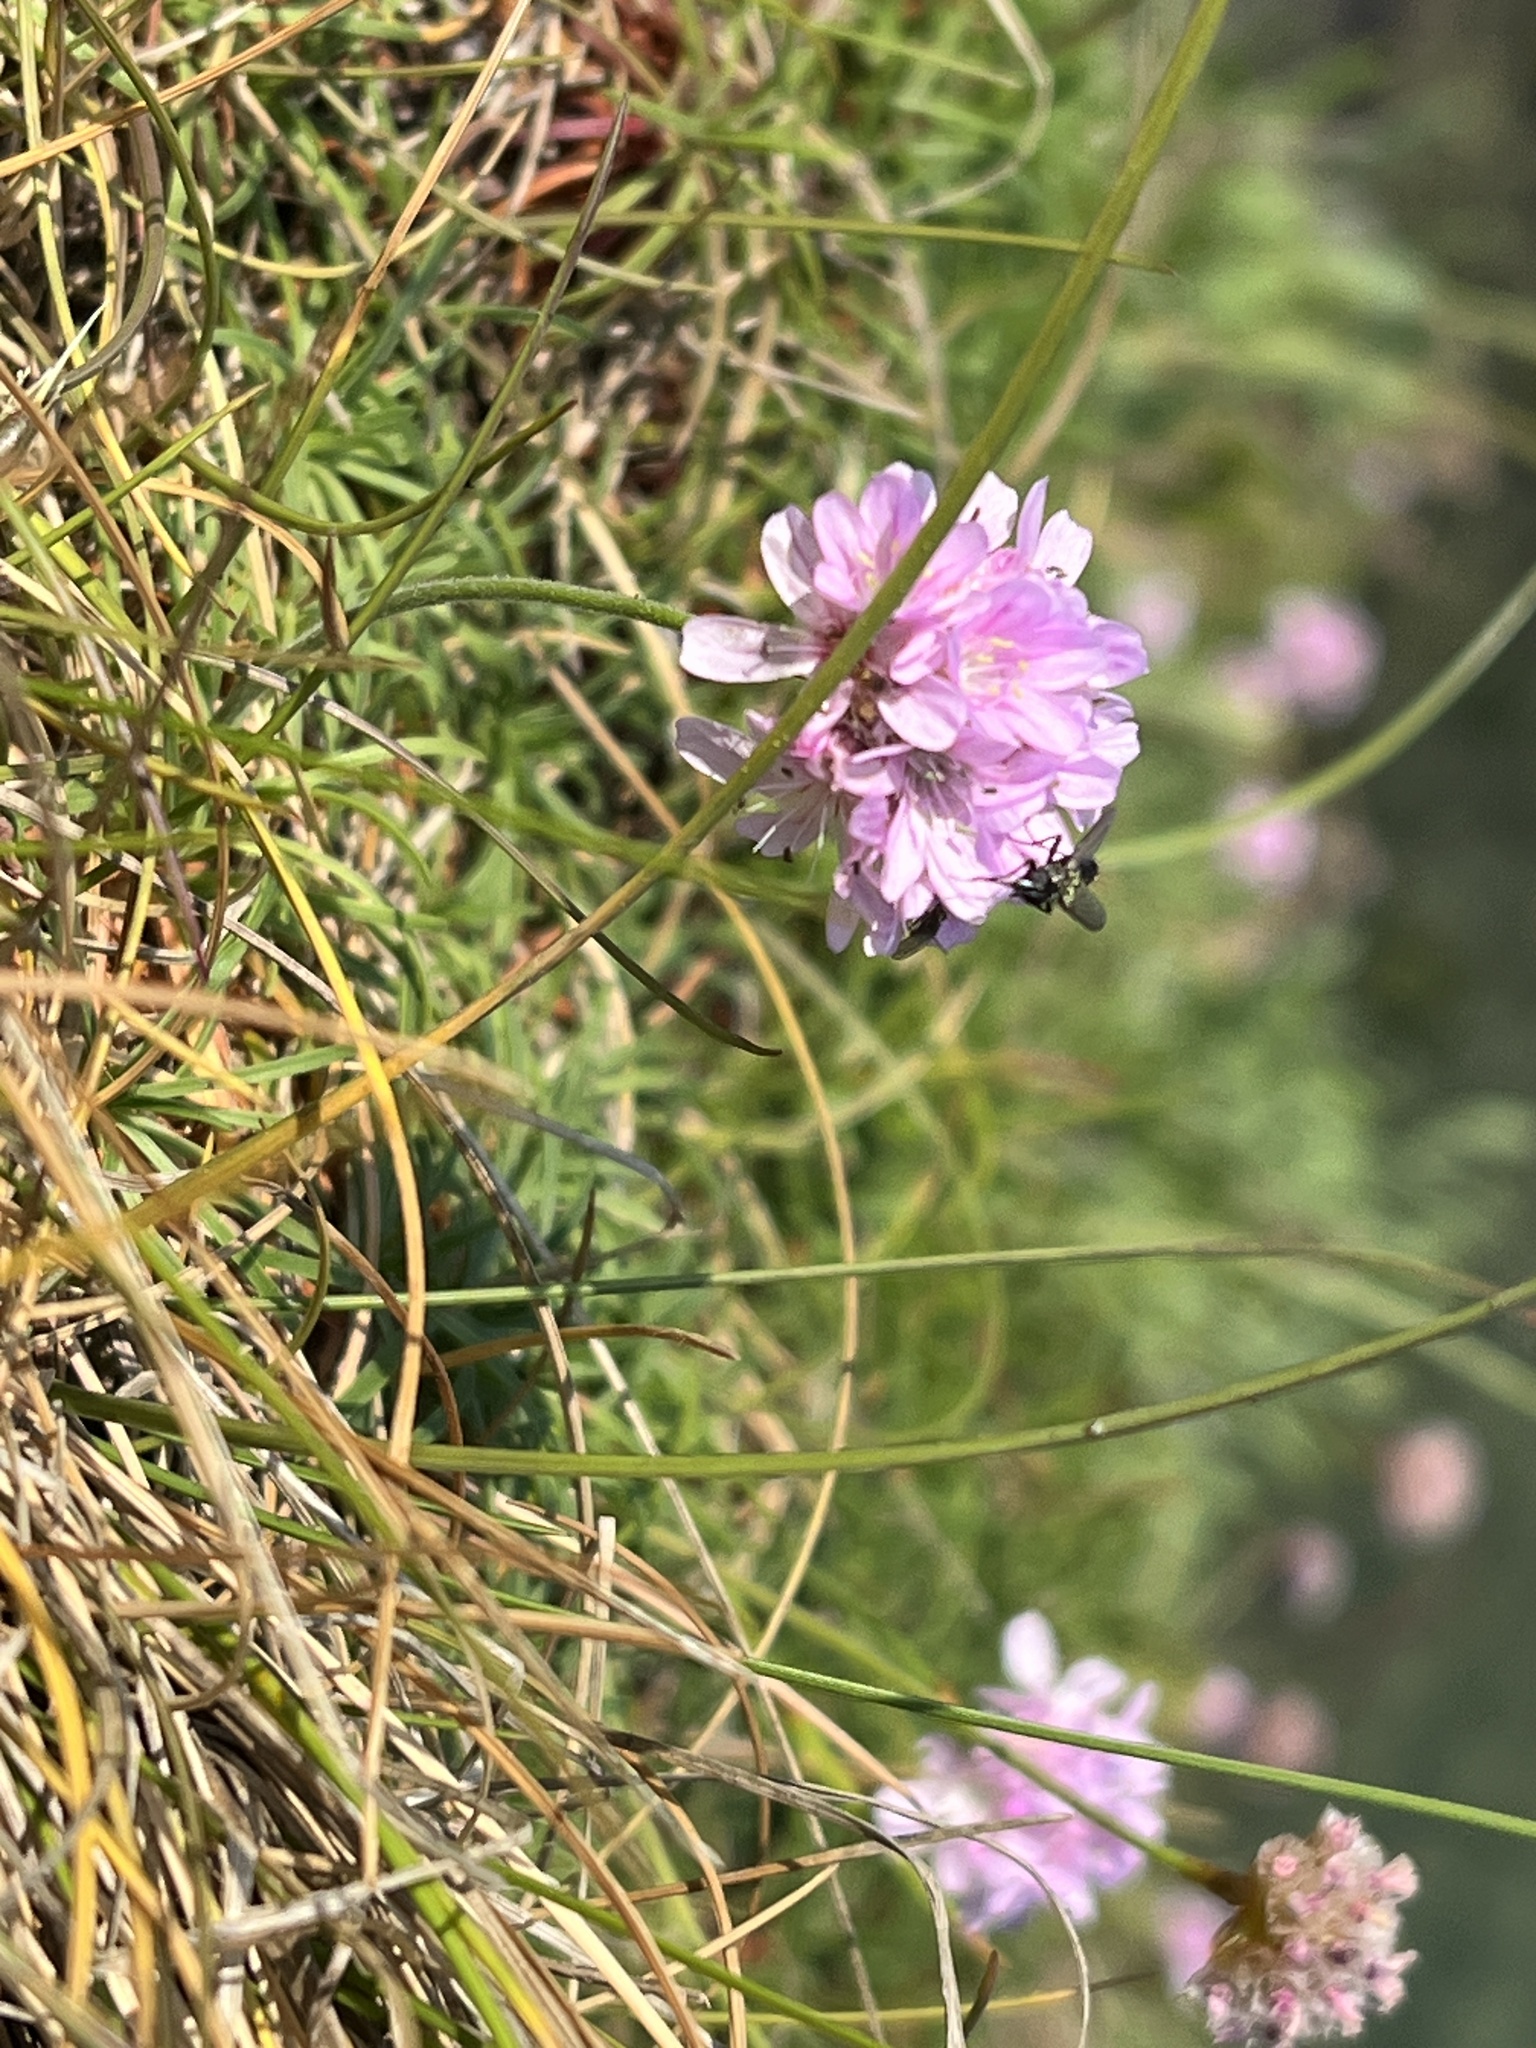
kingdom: Plantae
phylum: Tracheophyta
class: Magnoliopsida
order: Caryophyllales
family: Plumbaginaceae
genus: Armeria
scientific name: Armeria maritima
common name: Thrift
